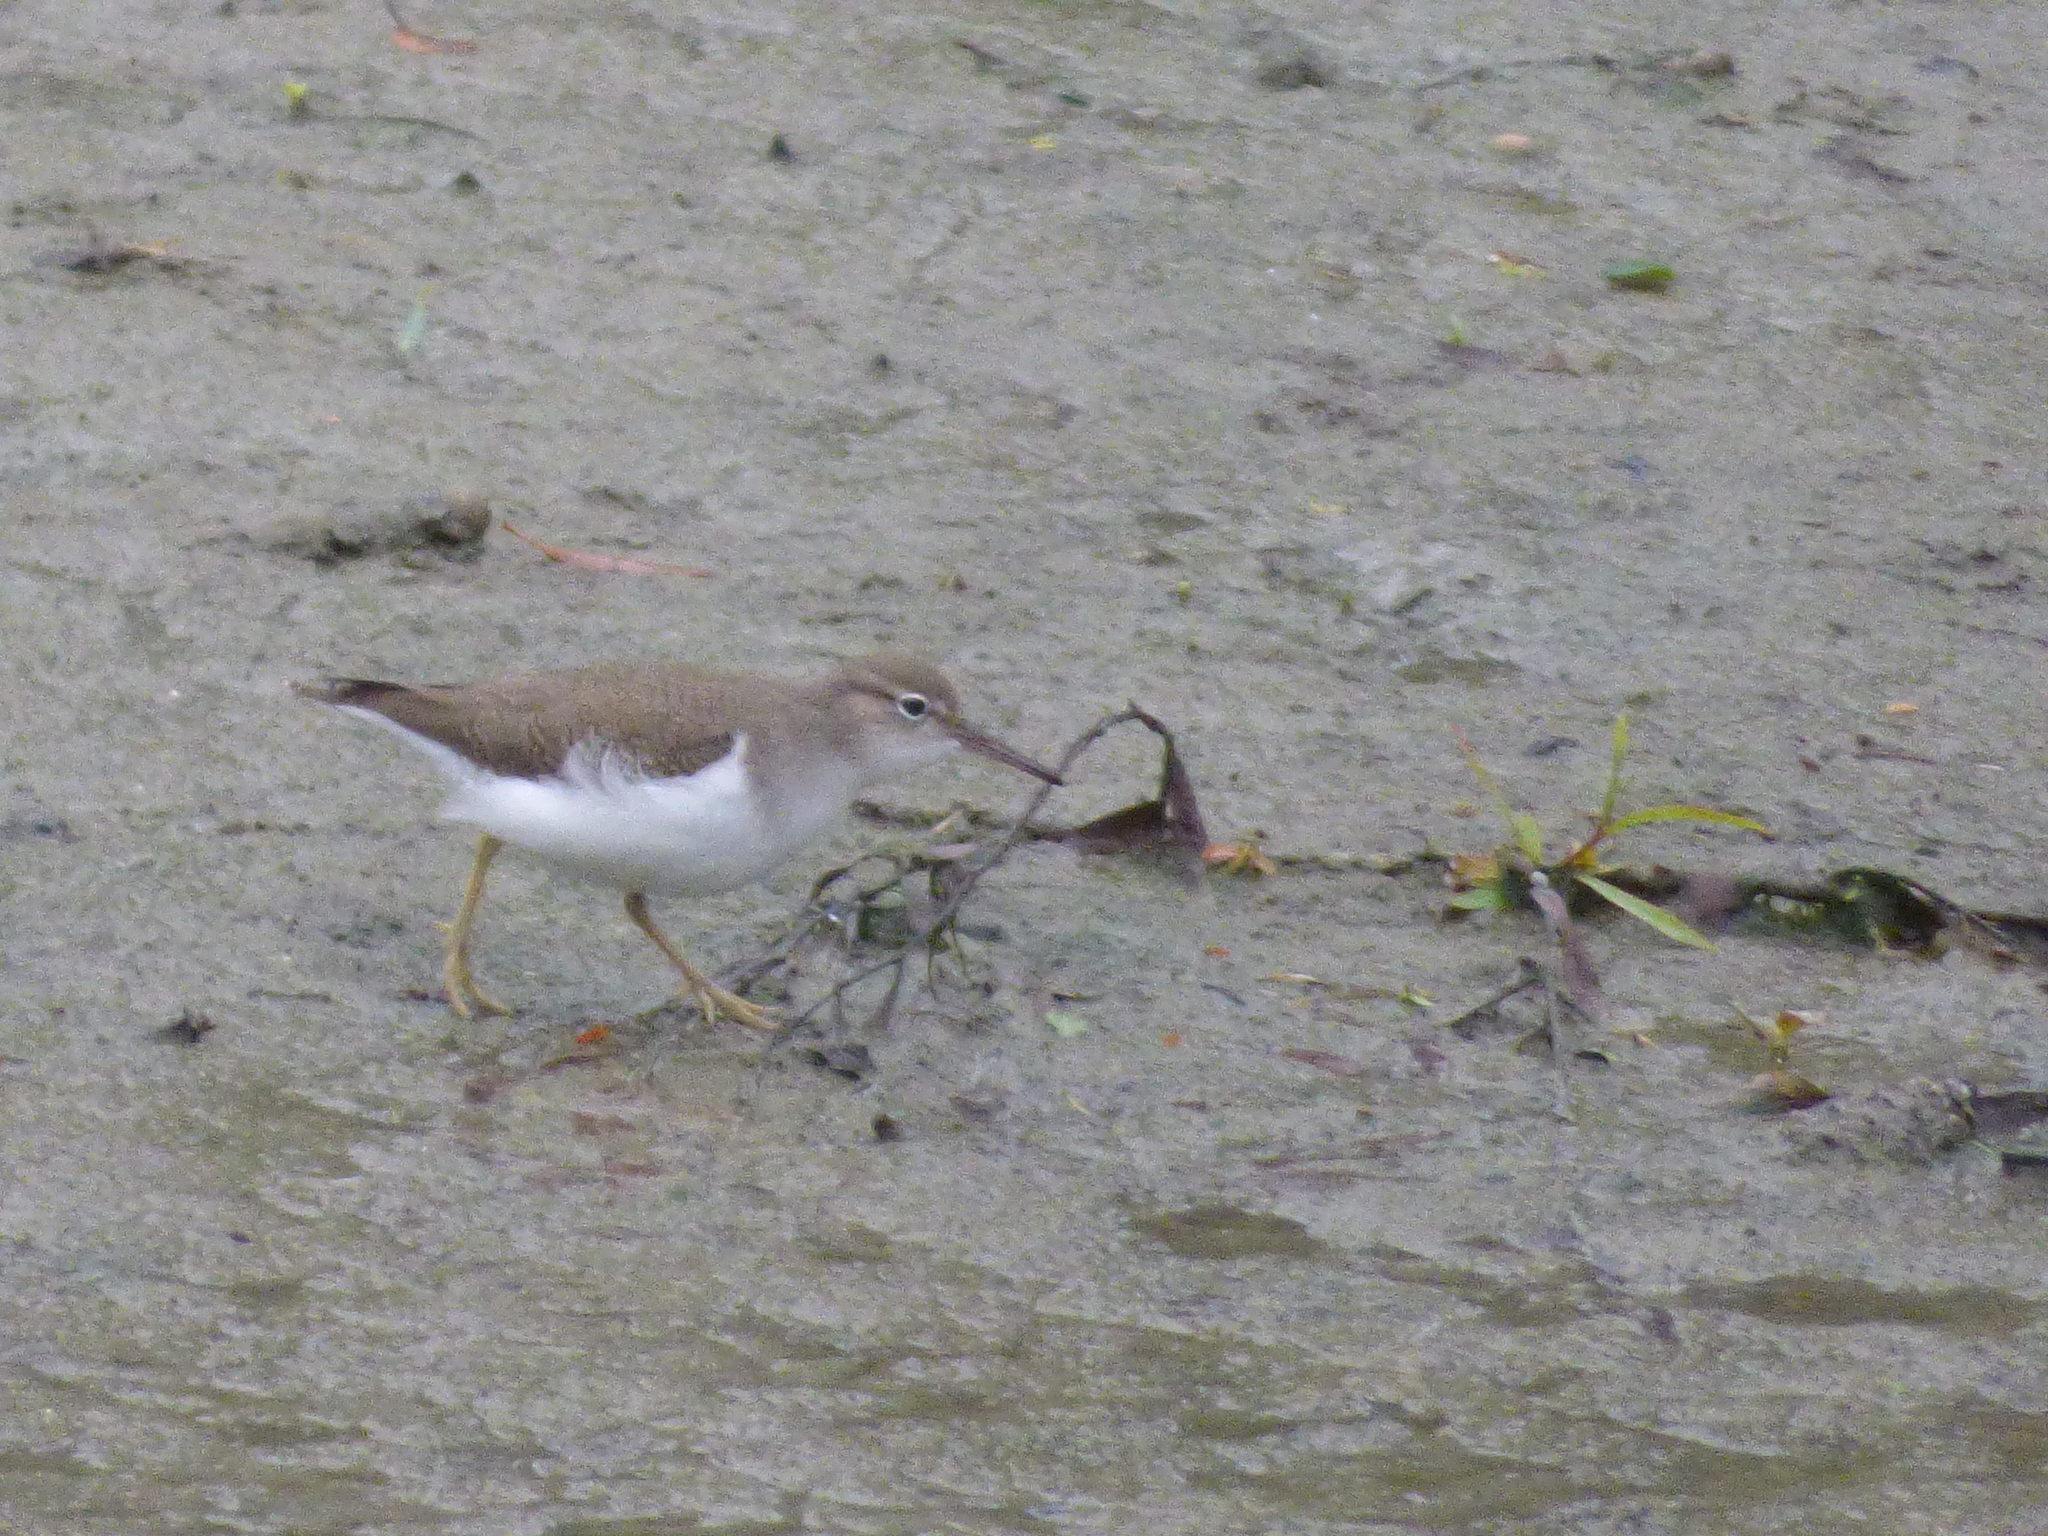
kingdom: Animalia
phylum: Chordata
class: Aves
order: Charadriiformes
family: Scolopacidae
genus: Actitis
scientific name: Actitis macularius
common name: Spotted sandpiper
